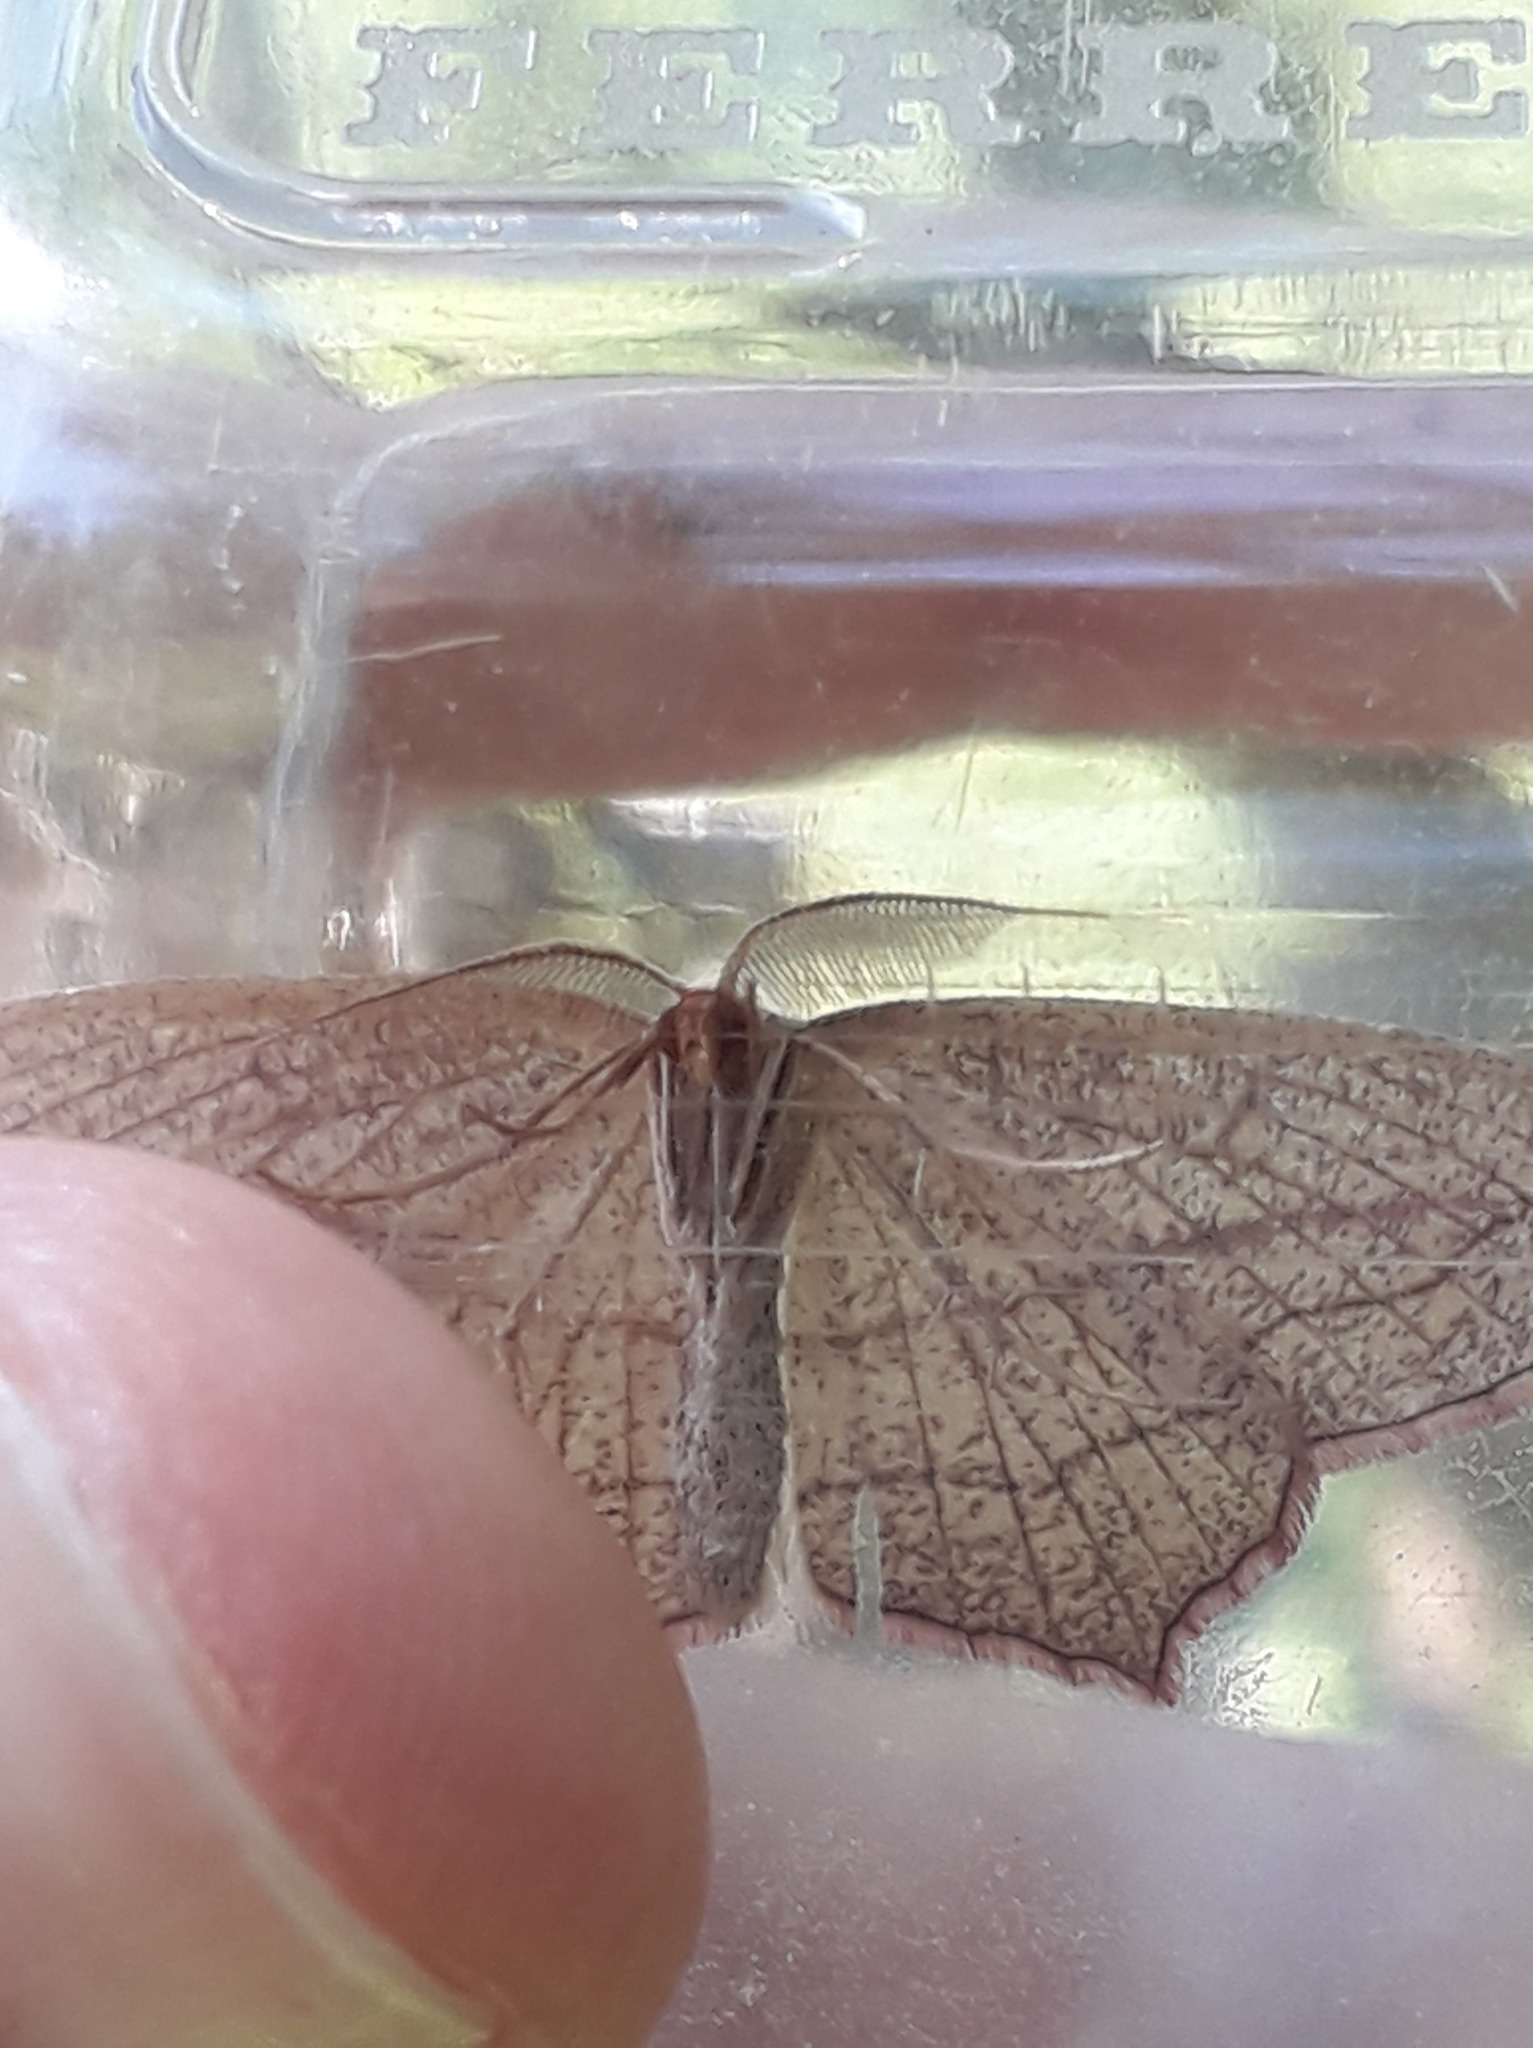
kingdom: Animalia
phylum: Arthropoda
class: Insecta
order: Lepidoptera
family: Geometridae
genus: Timandra
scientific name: Timandra comae
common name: Blood-vein
